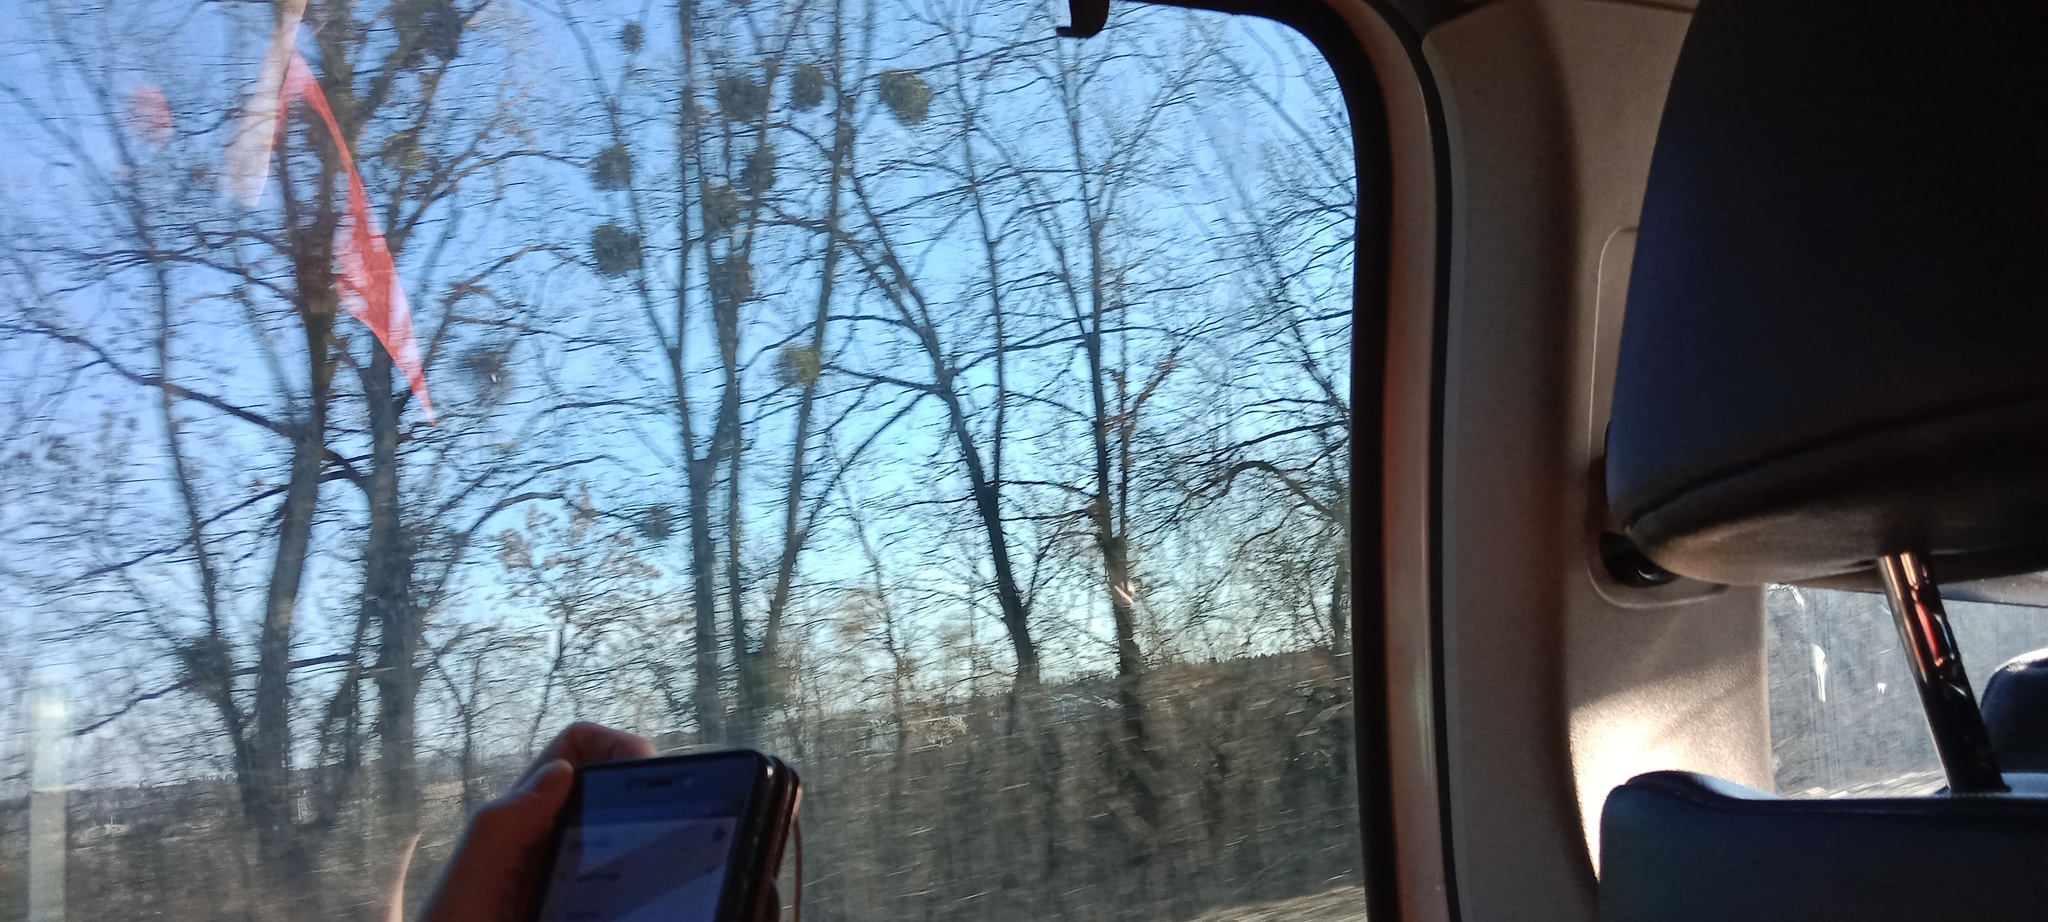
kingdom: Plantae
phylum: Tracheophyta
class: Magnoliopsida
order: Santalales
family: Viscaceae
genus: Viscum
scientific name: Viscum album
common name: Mistletoe
